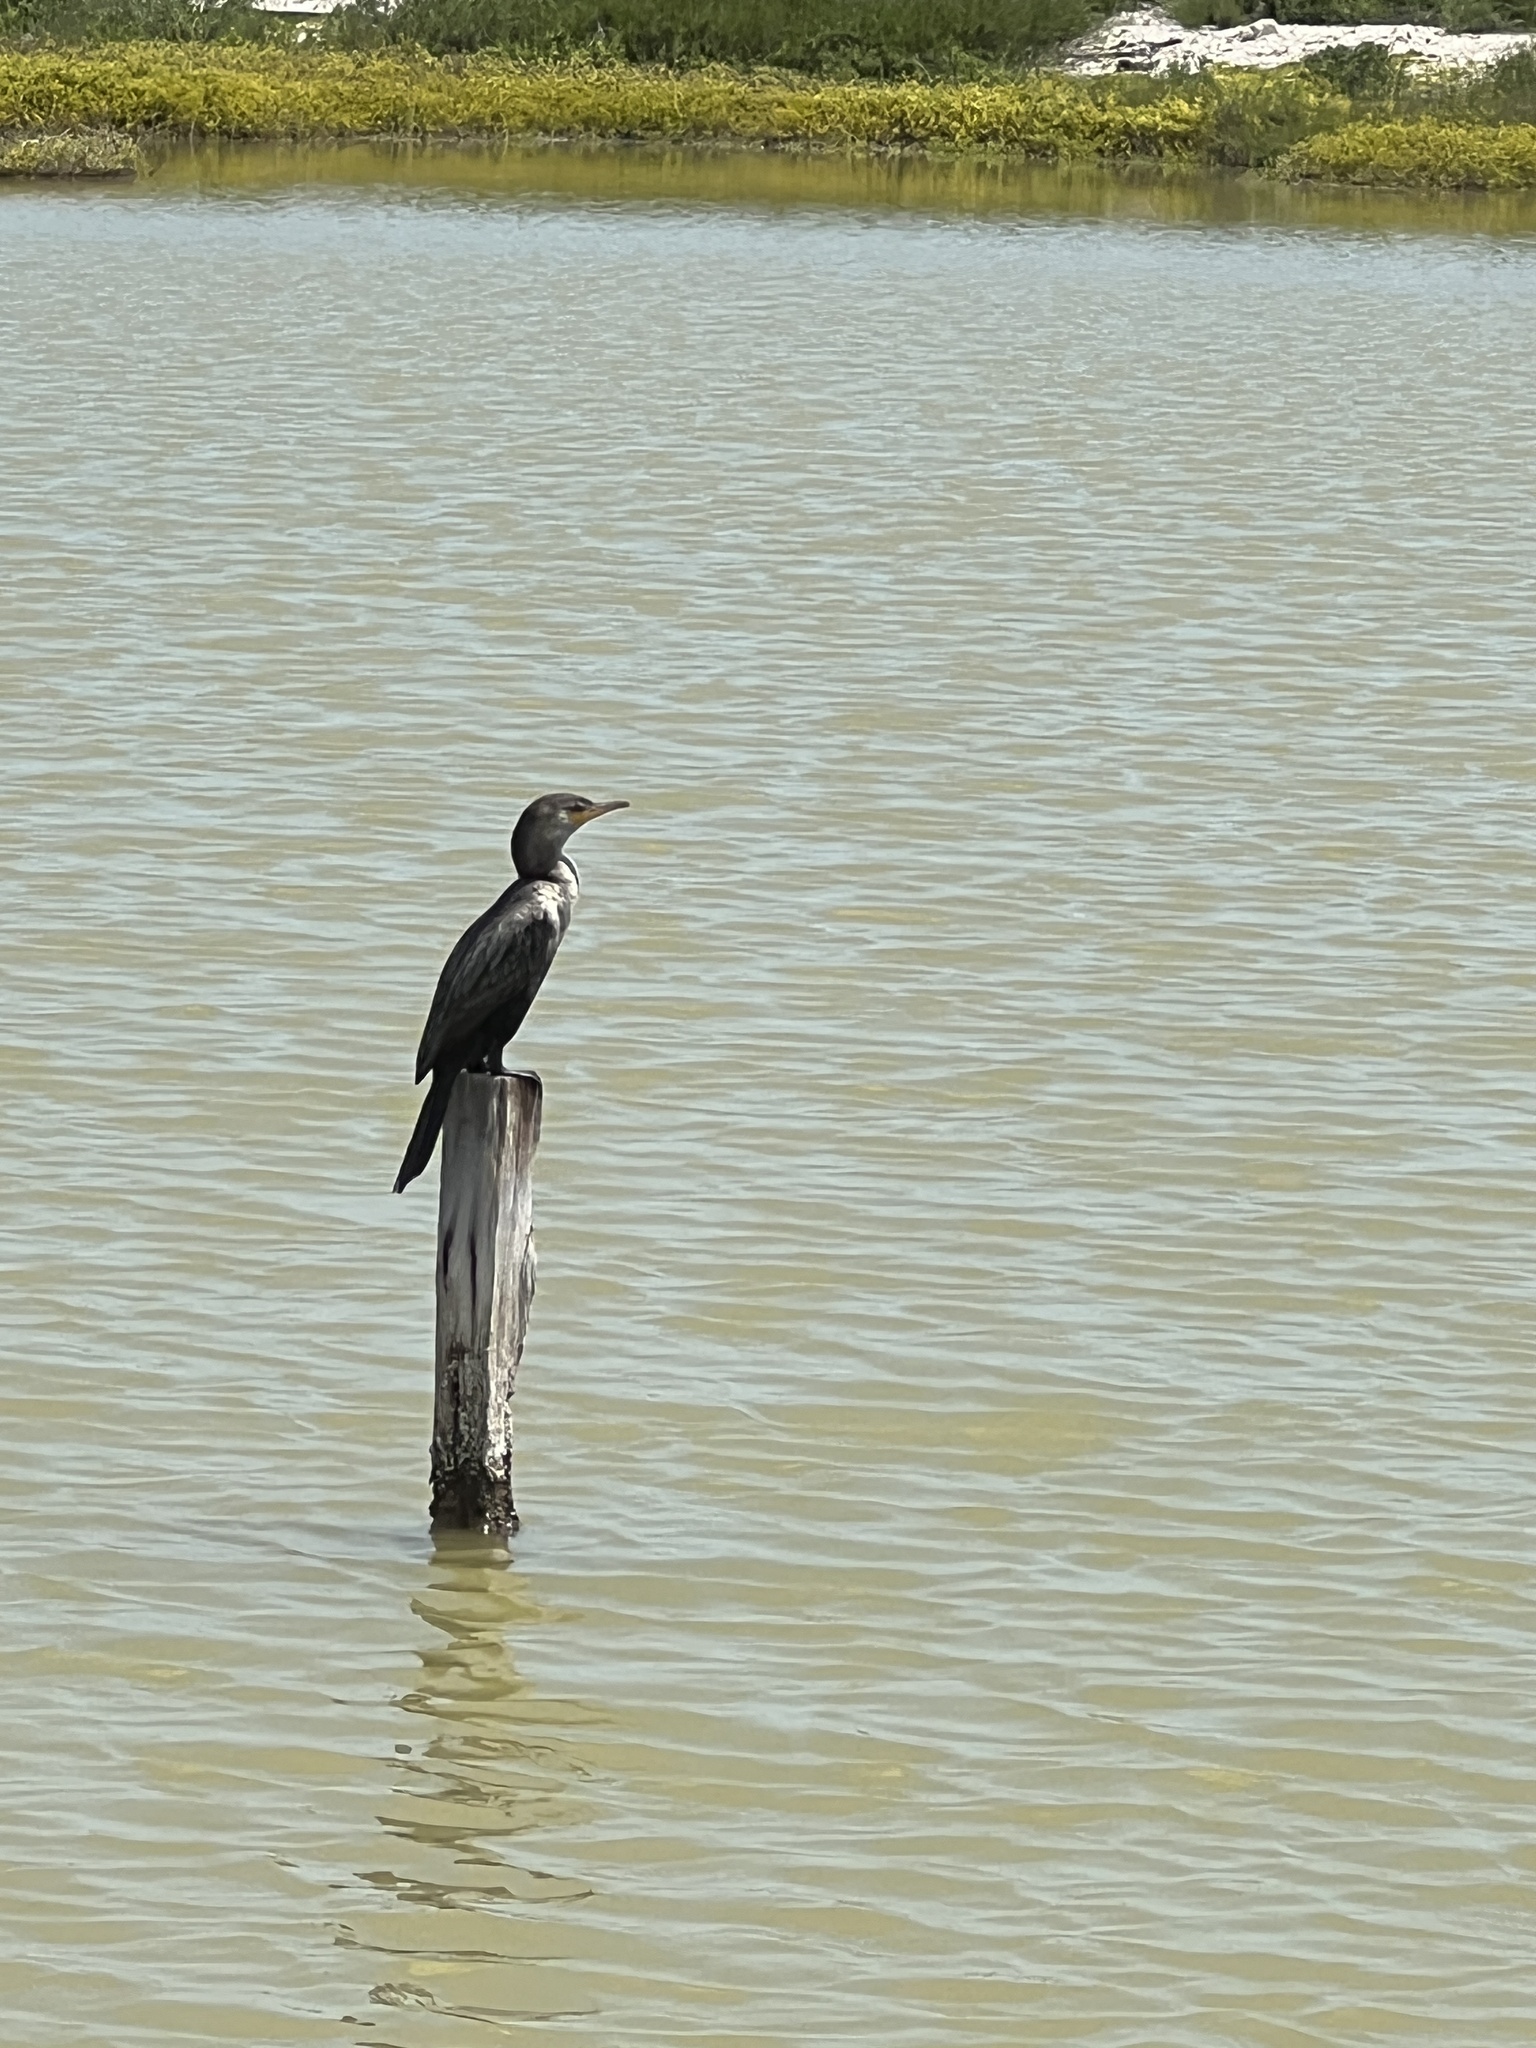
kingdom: Animalia
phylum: Chordata
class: Aves
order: Suliformes
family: Phalacrocoracidae
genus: Phalacrocorax
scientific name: Phalacrocorax brasilianus
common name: Neotropic cormorant
